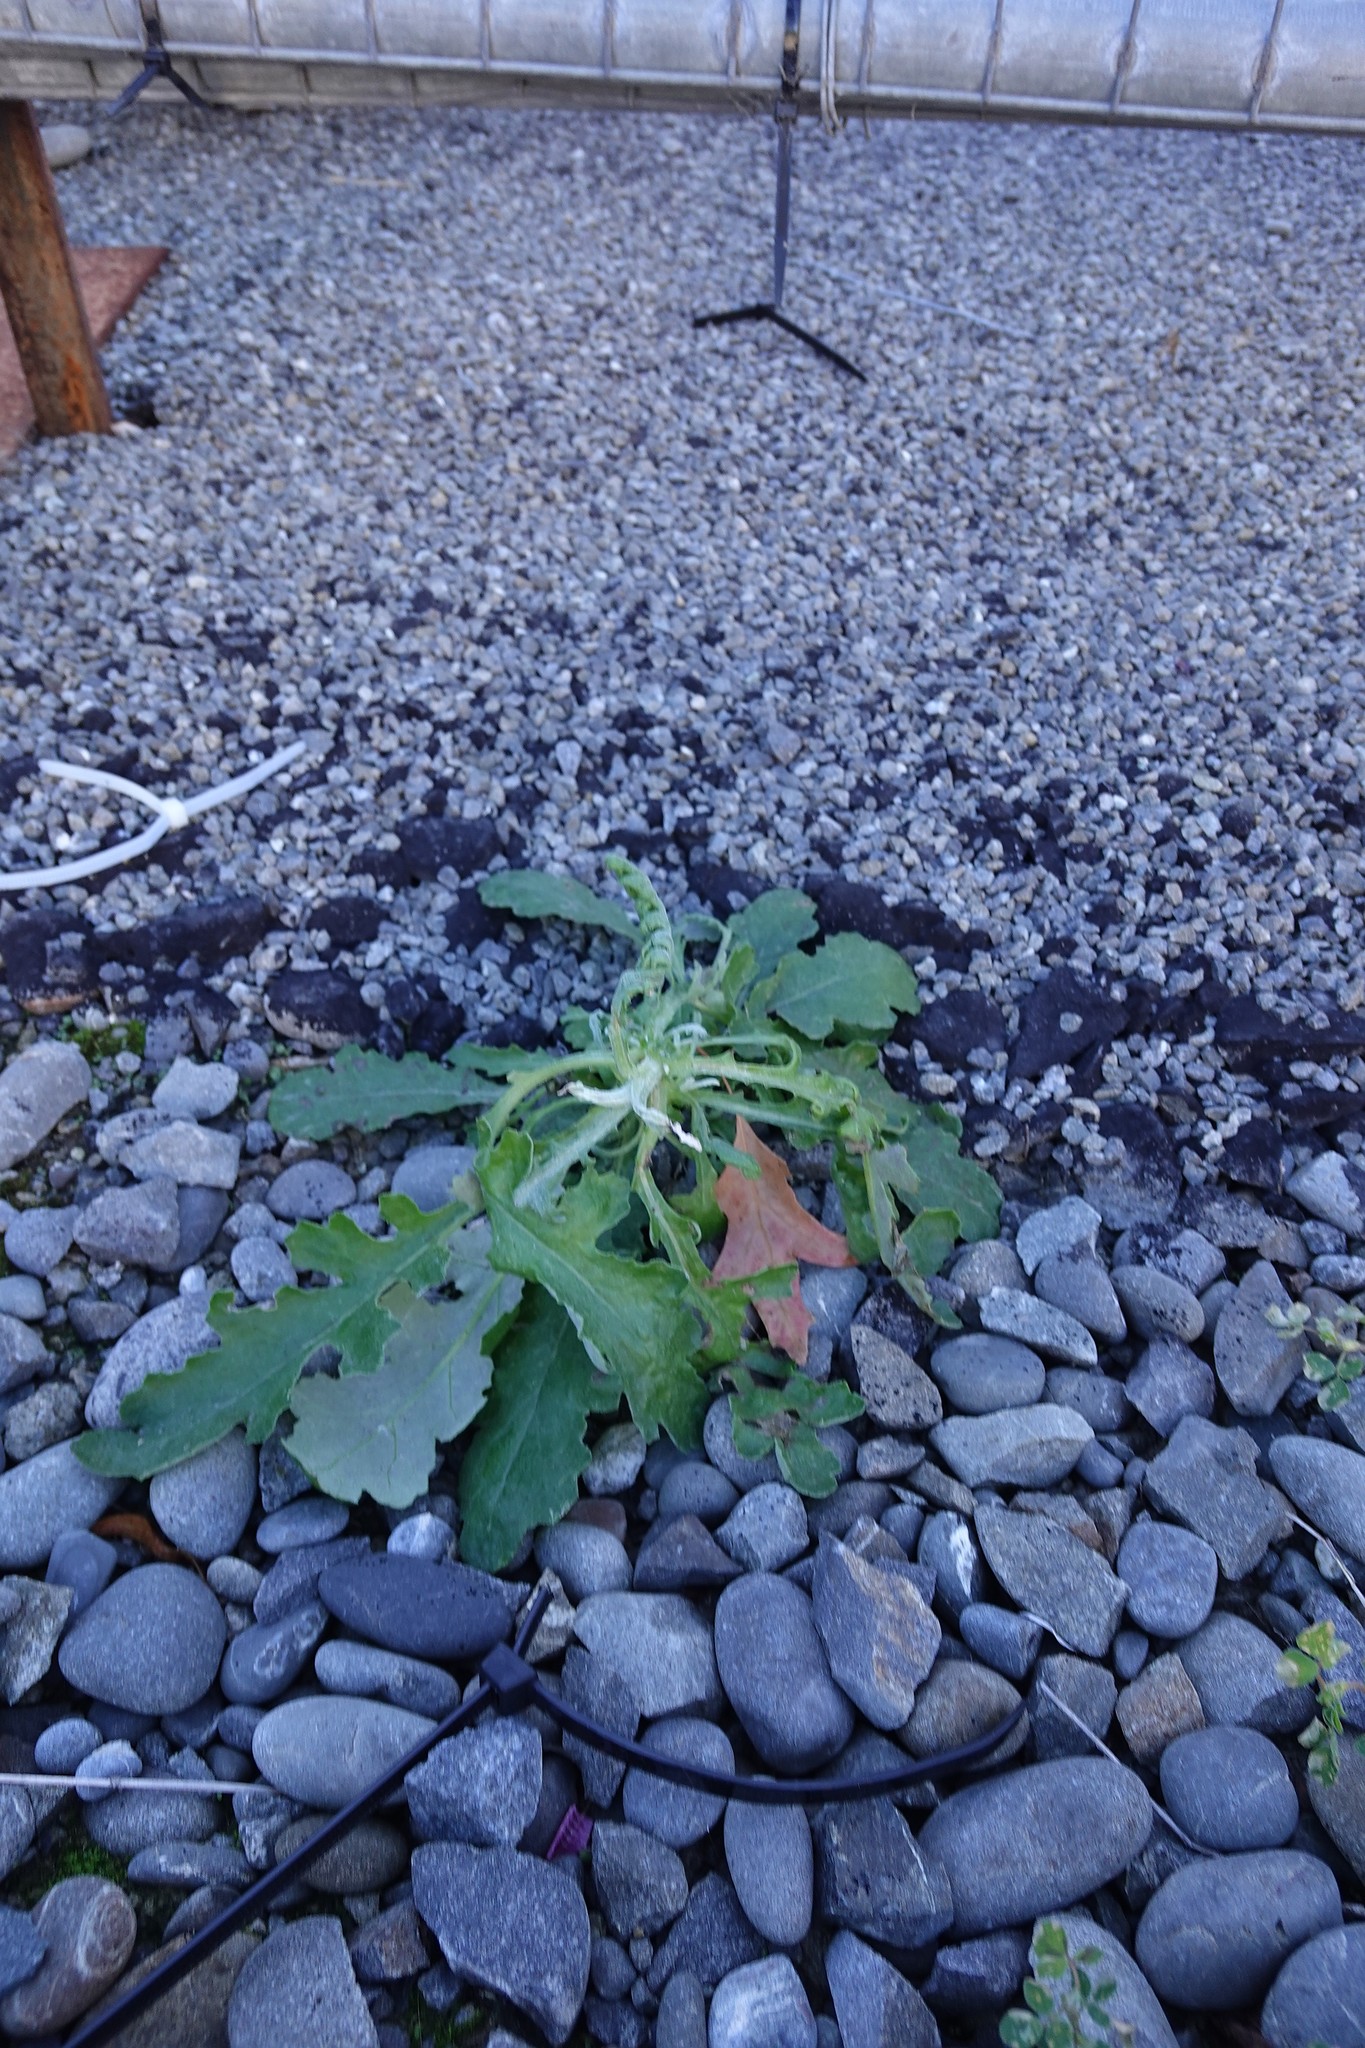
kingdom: Plantae
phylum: Tracheophyta
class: Magnoliopsida
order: Asterales
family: Asteraceae
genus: Senecio
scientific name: Senecio glomeratus
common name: Cutleaf burnweed
